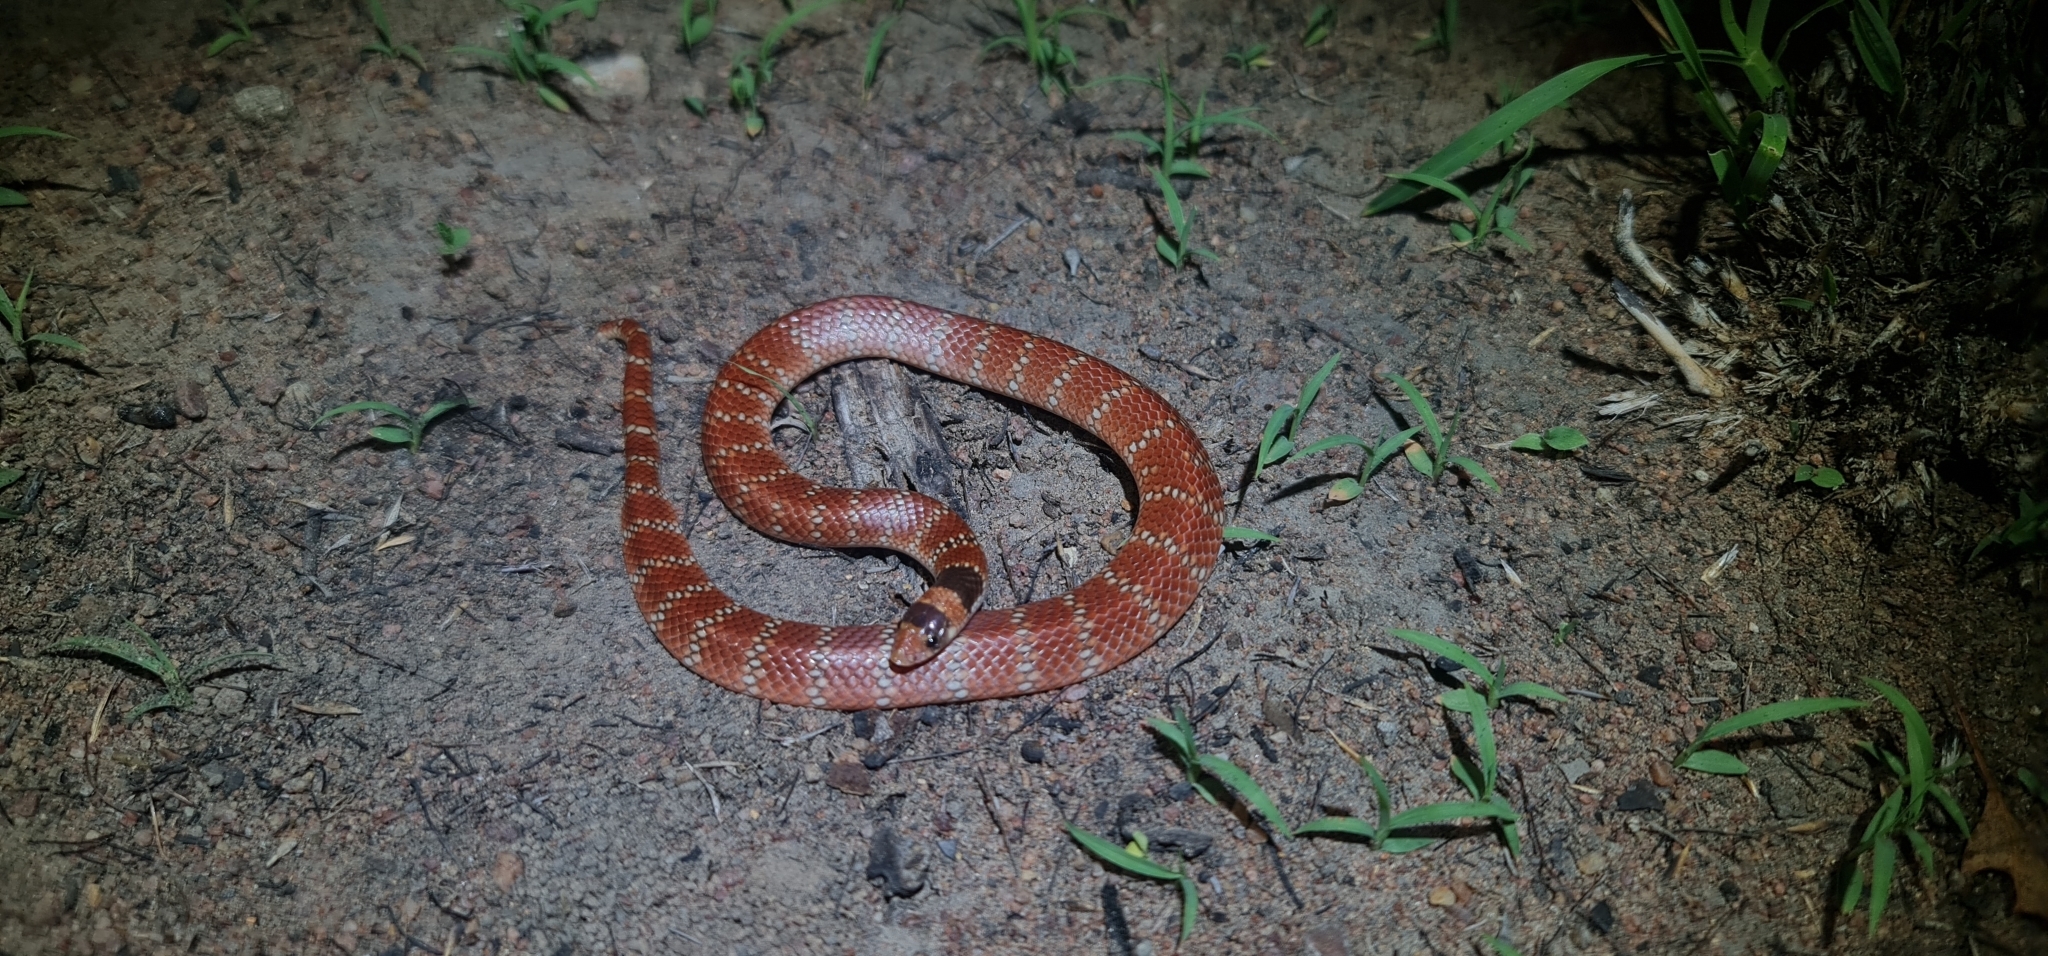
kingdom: Animalia
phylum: Chordata
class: Squamata
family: Elapidae
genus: Brachyurophis
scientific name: Brachyurophis australis
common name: Australian coral snake
